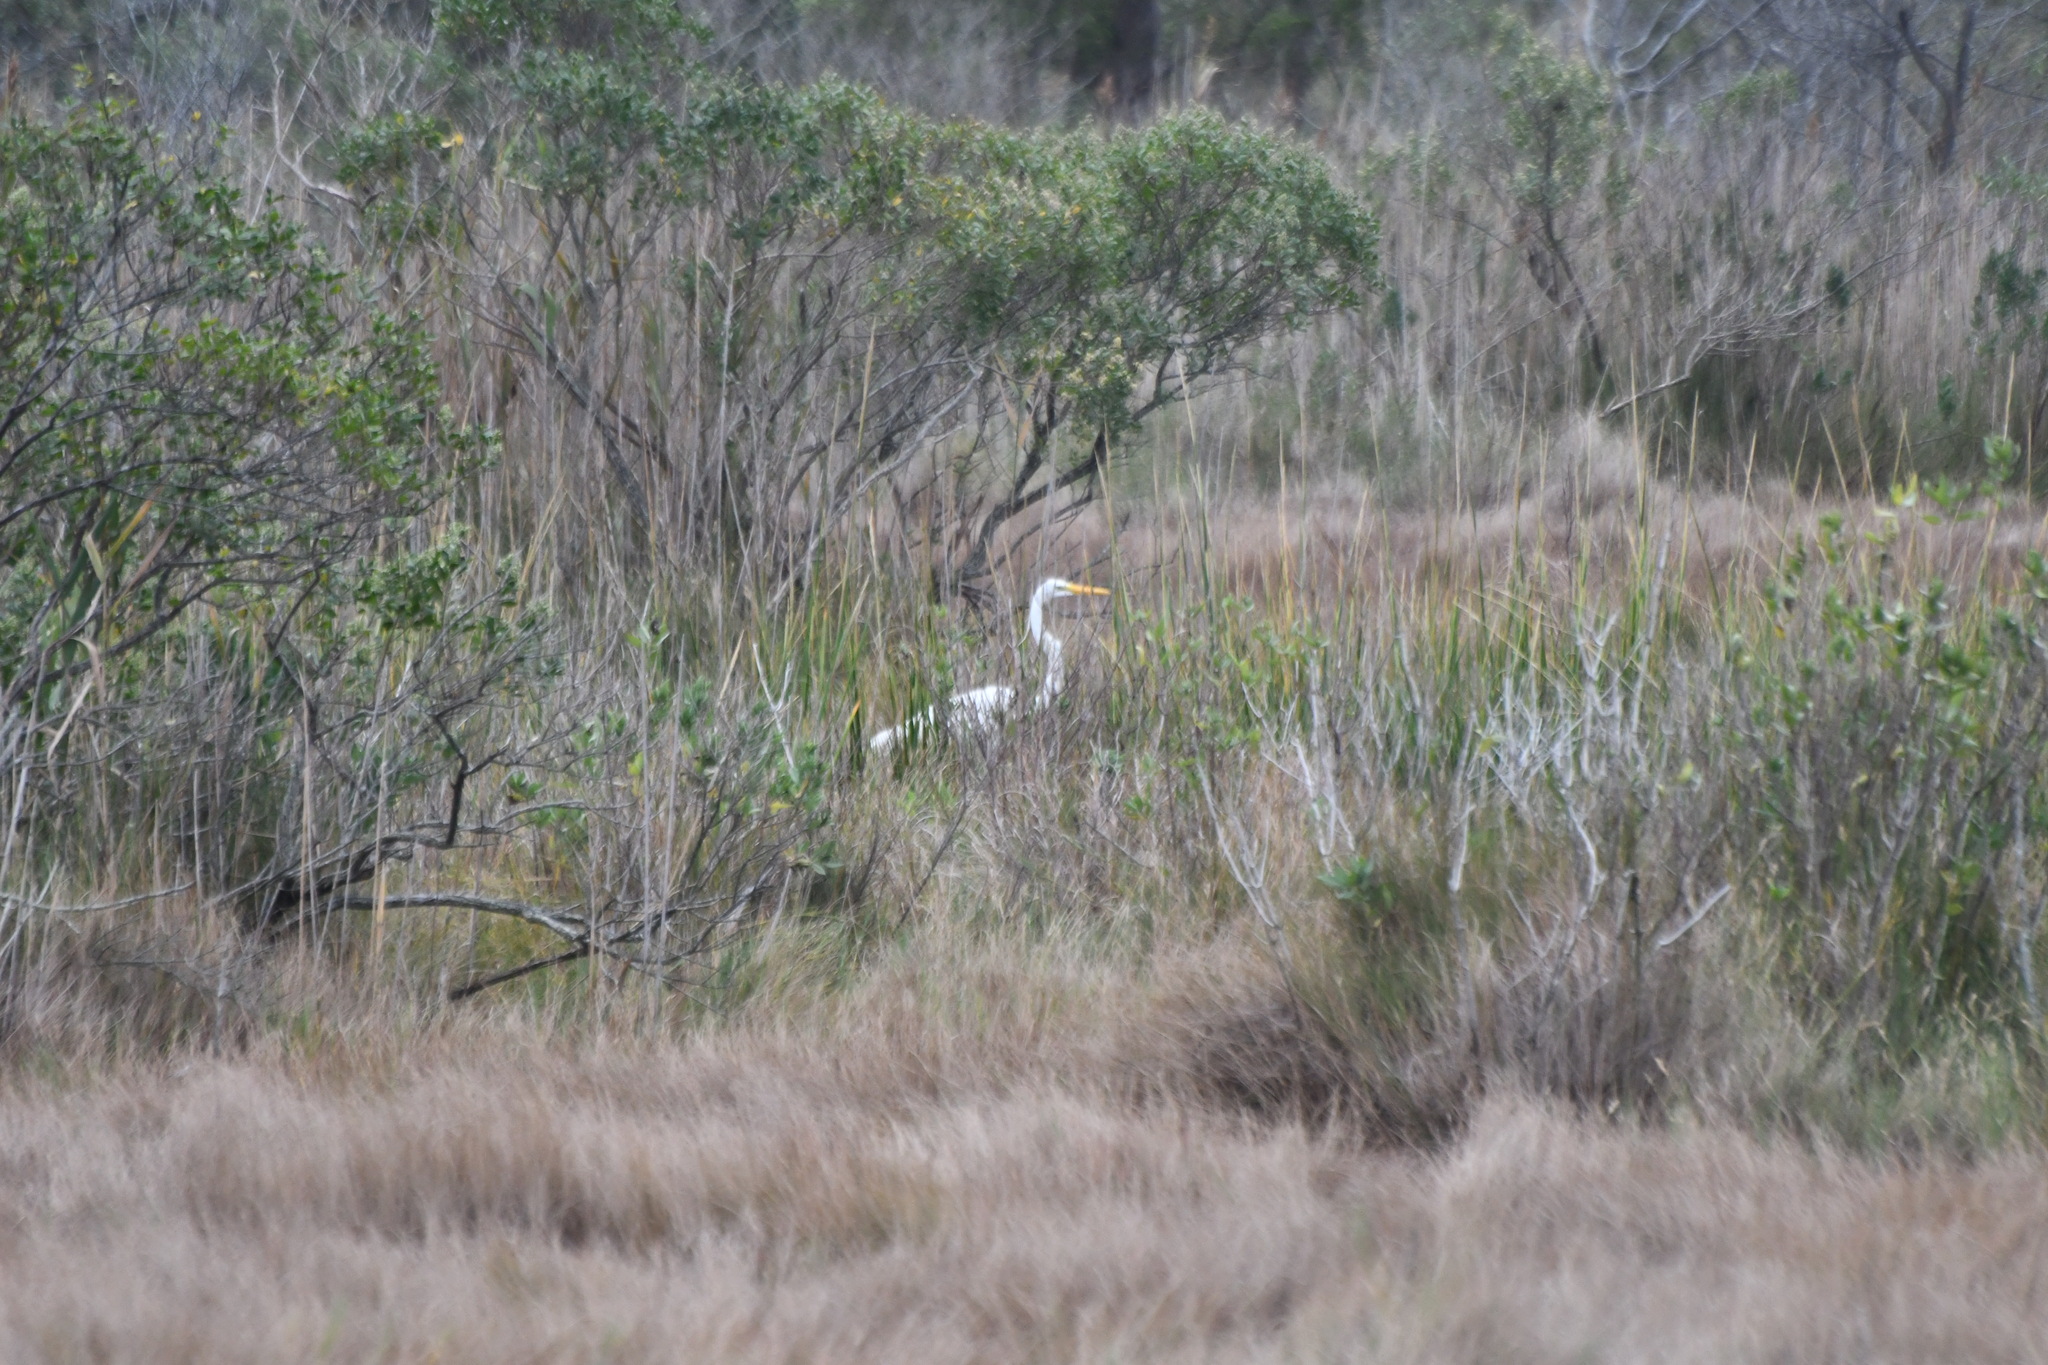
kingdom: Animalia
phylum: Chordata
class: Aves
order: Pelecaniformes
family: Ardeidae
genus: Ardea
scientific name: Ardea alba
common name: Great egret
